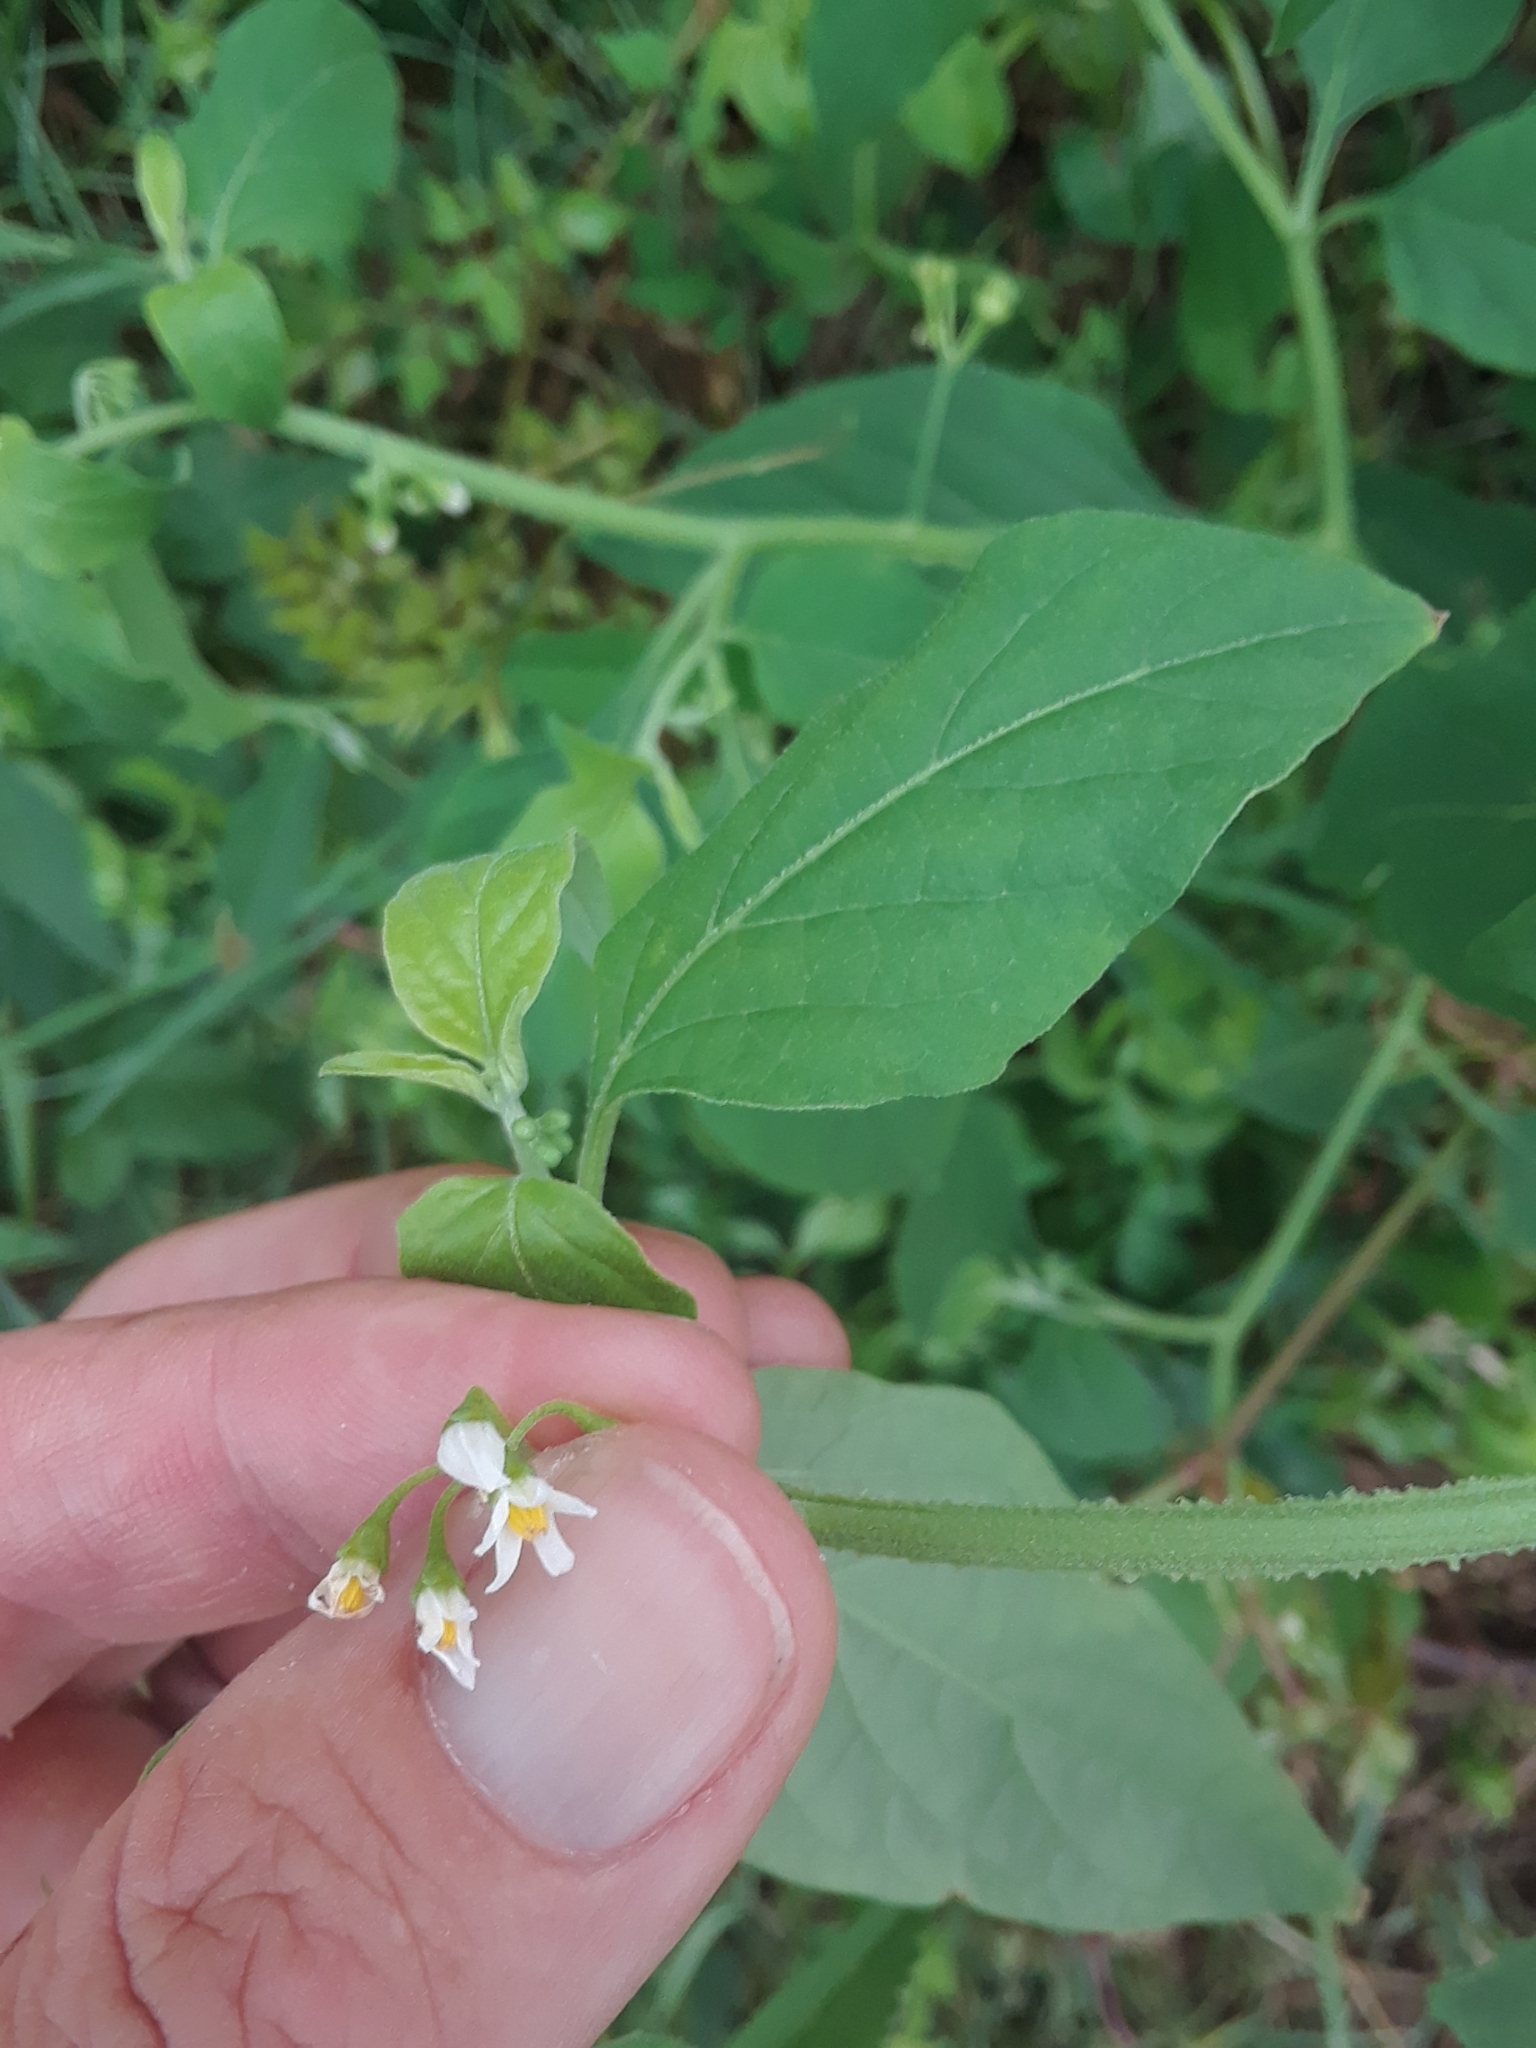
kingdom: Plantae
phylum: Tracheophyta
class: Magnoliopsida
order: Solanales
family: Solanaceae
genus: Solanum
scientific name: Solanum americanum
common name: American black nightshade
